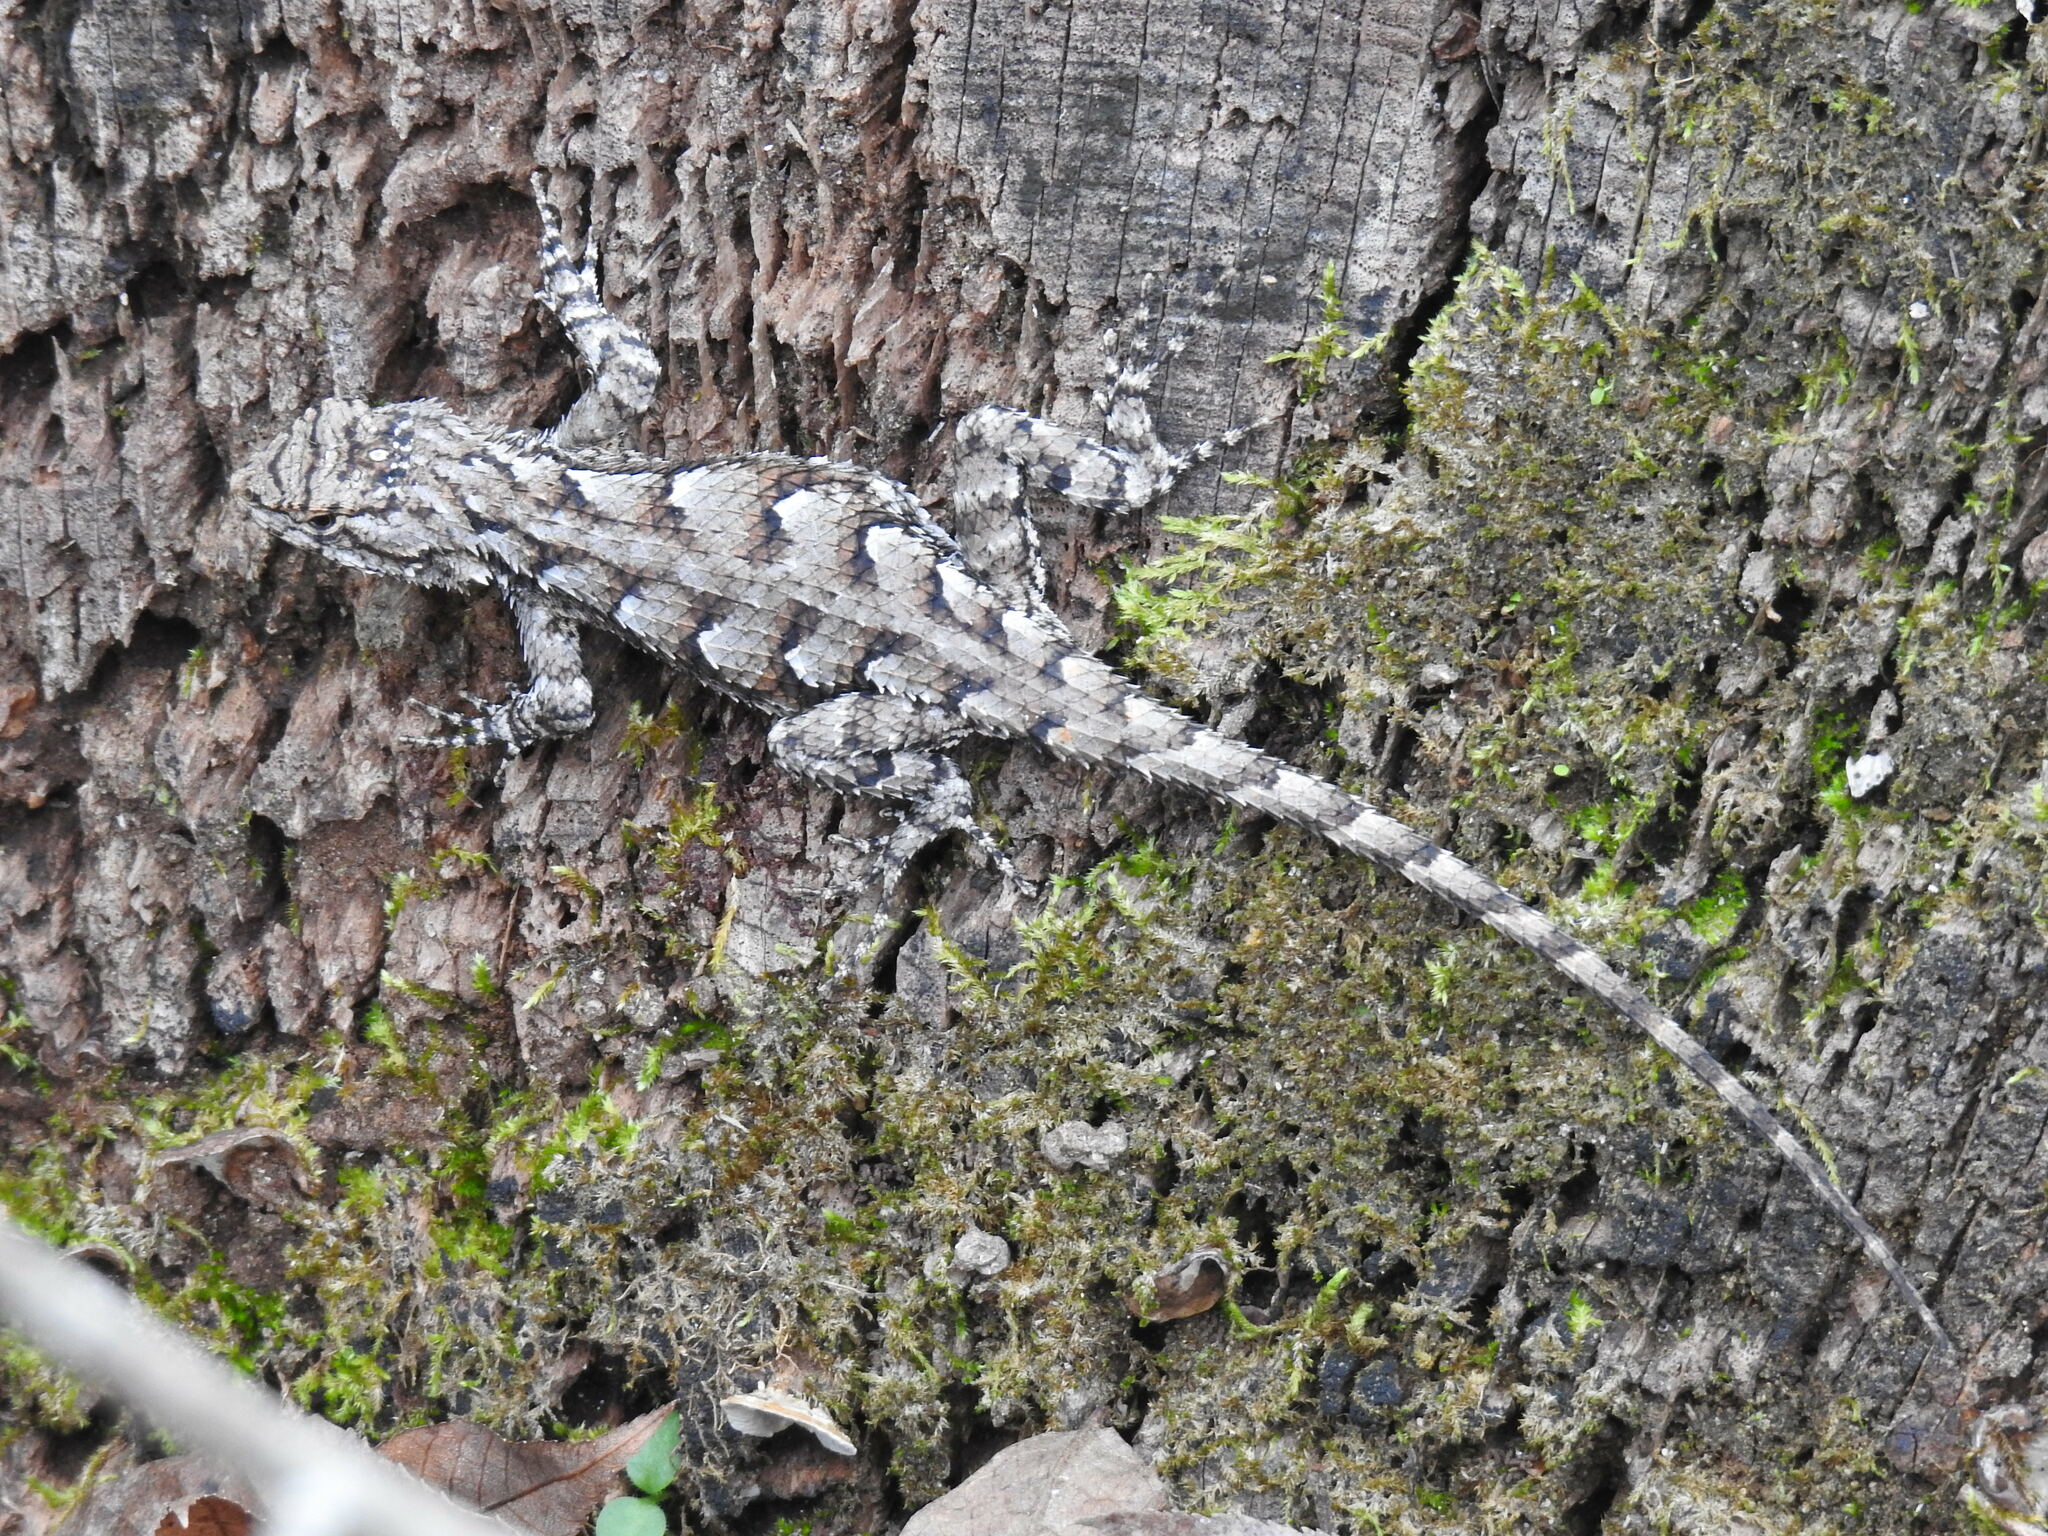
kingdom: Animalia
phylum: Chordata
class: Squamata
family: Phrynosomatidae
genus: Sceloporus
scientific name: Sceloporus undulatus
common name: Eastern fence lizard
